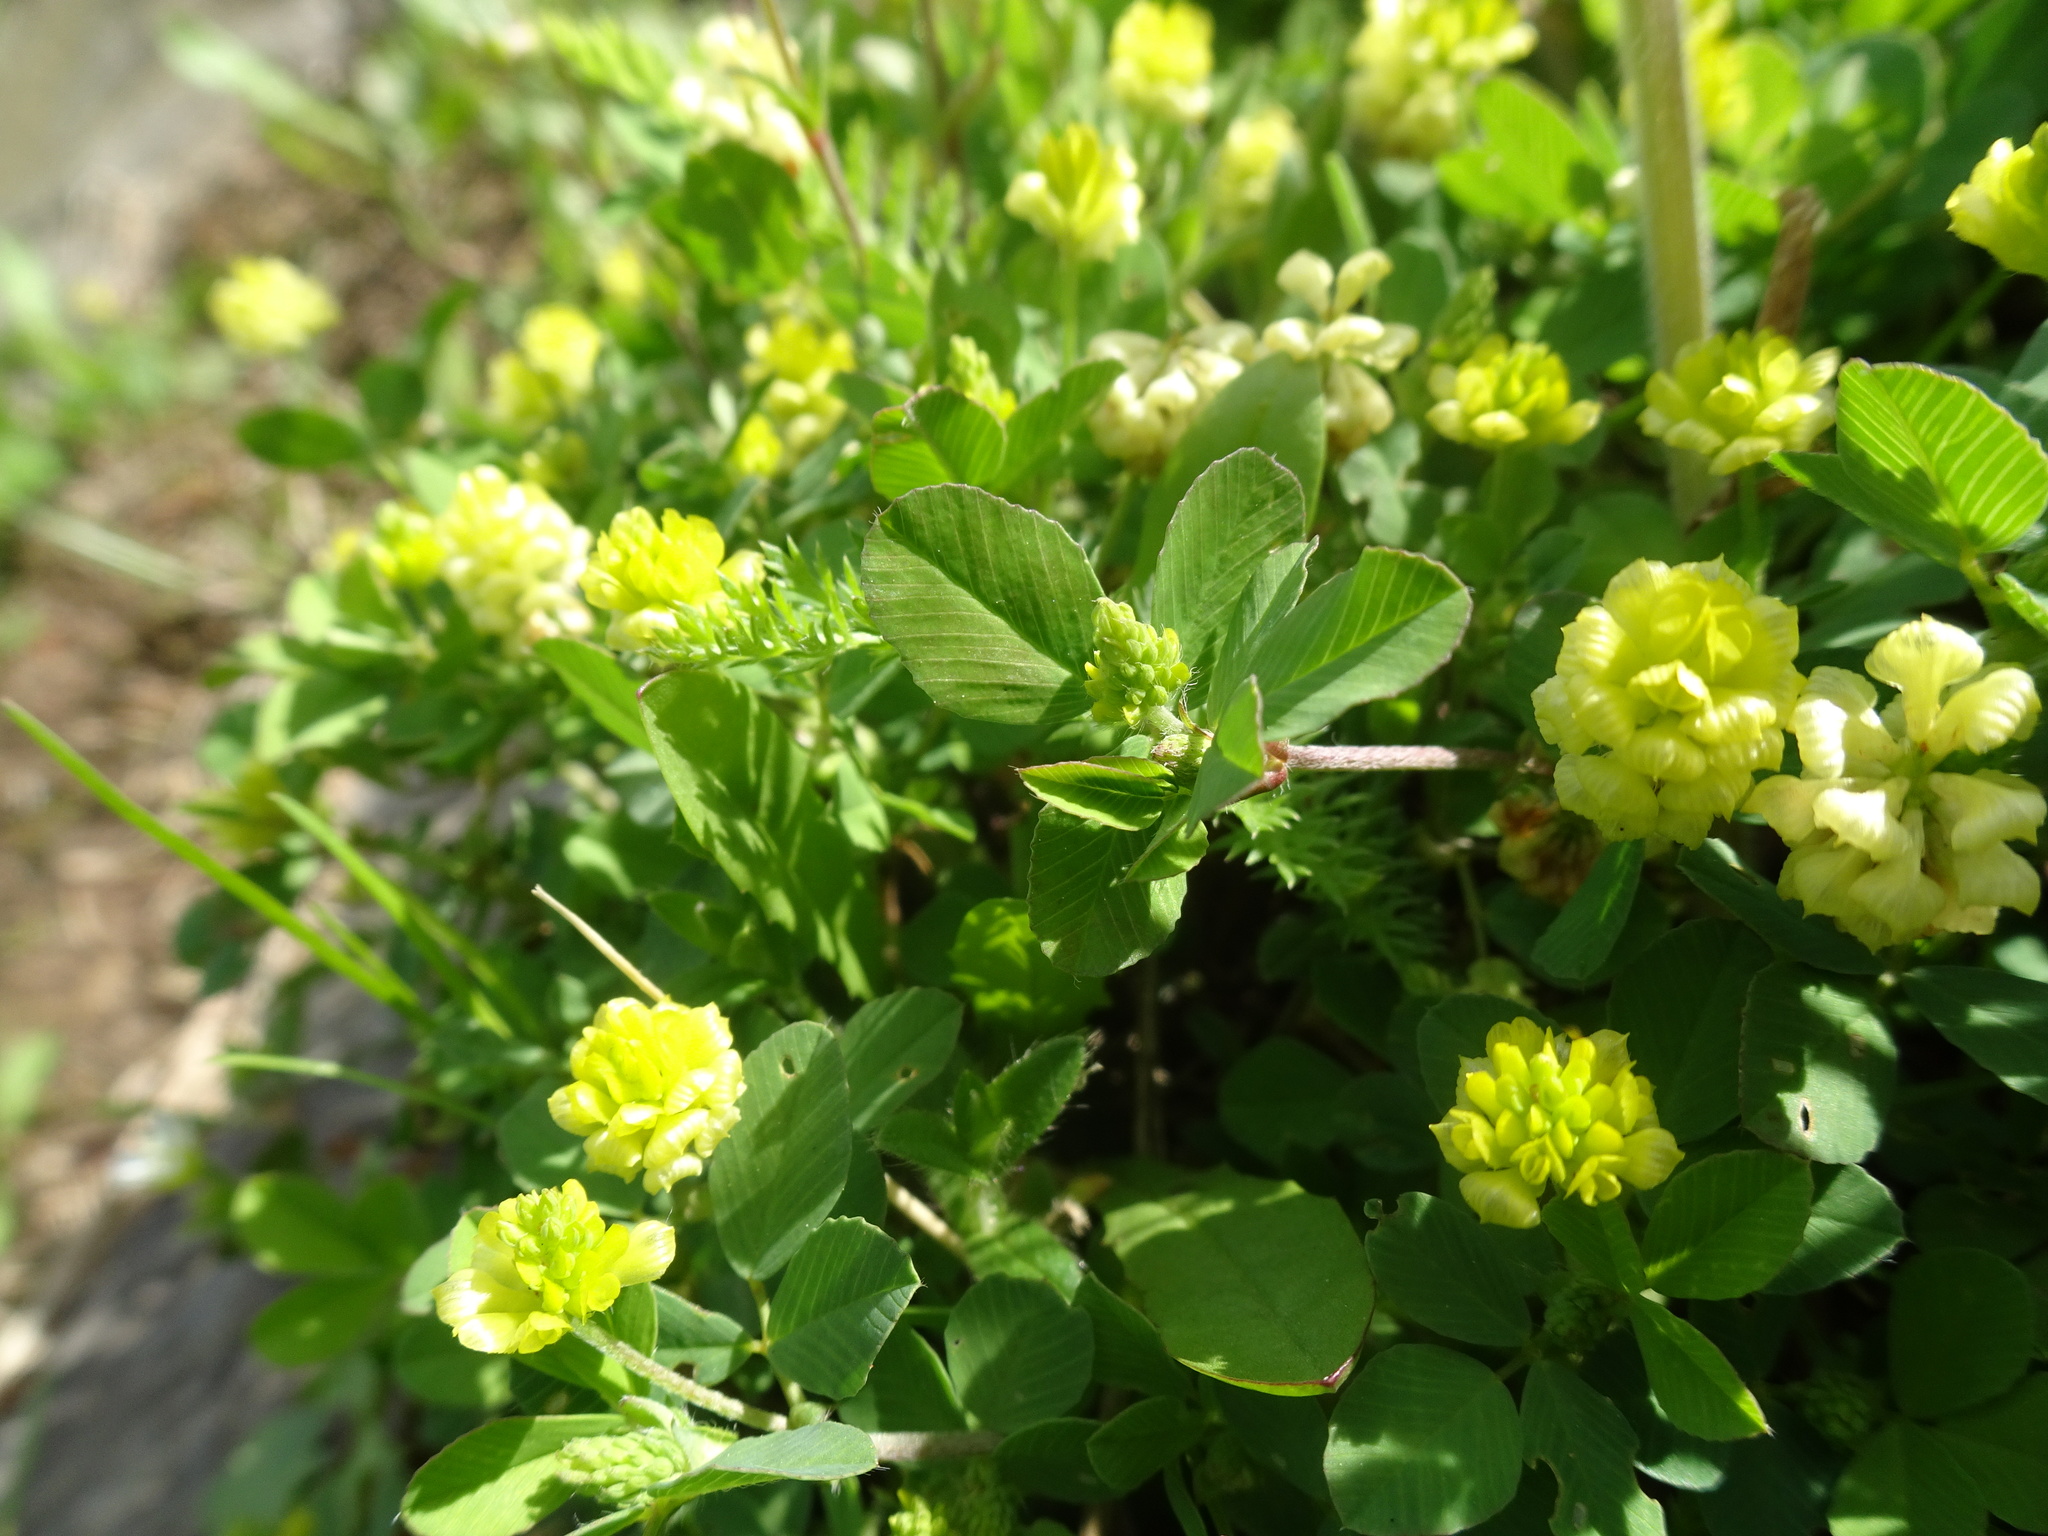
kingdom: Plantae
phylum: Tracheophyta
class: Magnoliopsida
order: Fabales
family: Fabaceae
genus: Trifolium
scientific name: Trifolium campestre
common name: Field clover
